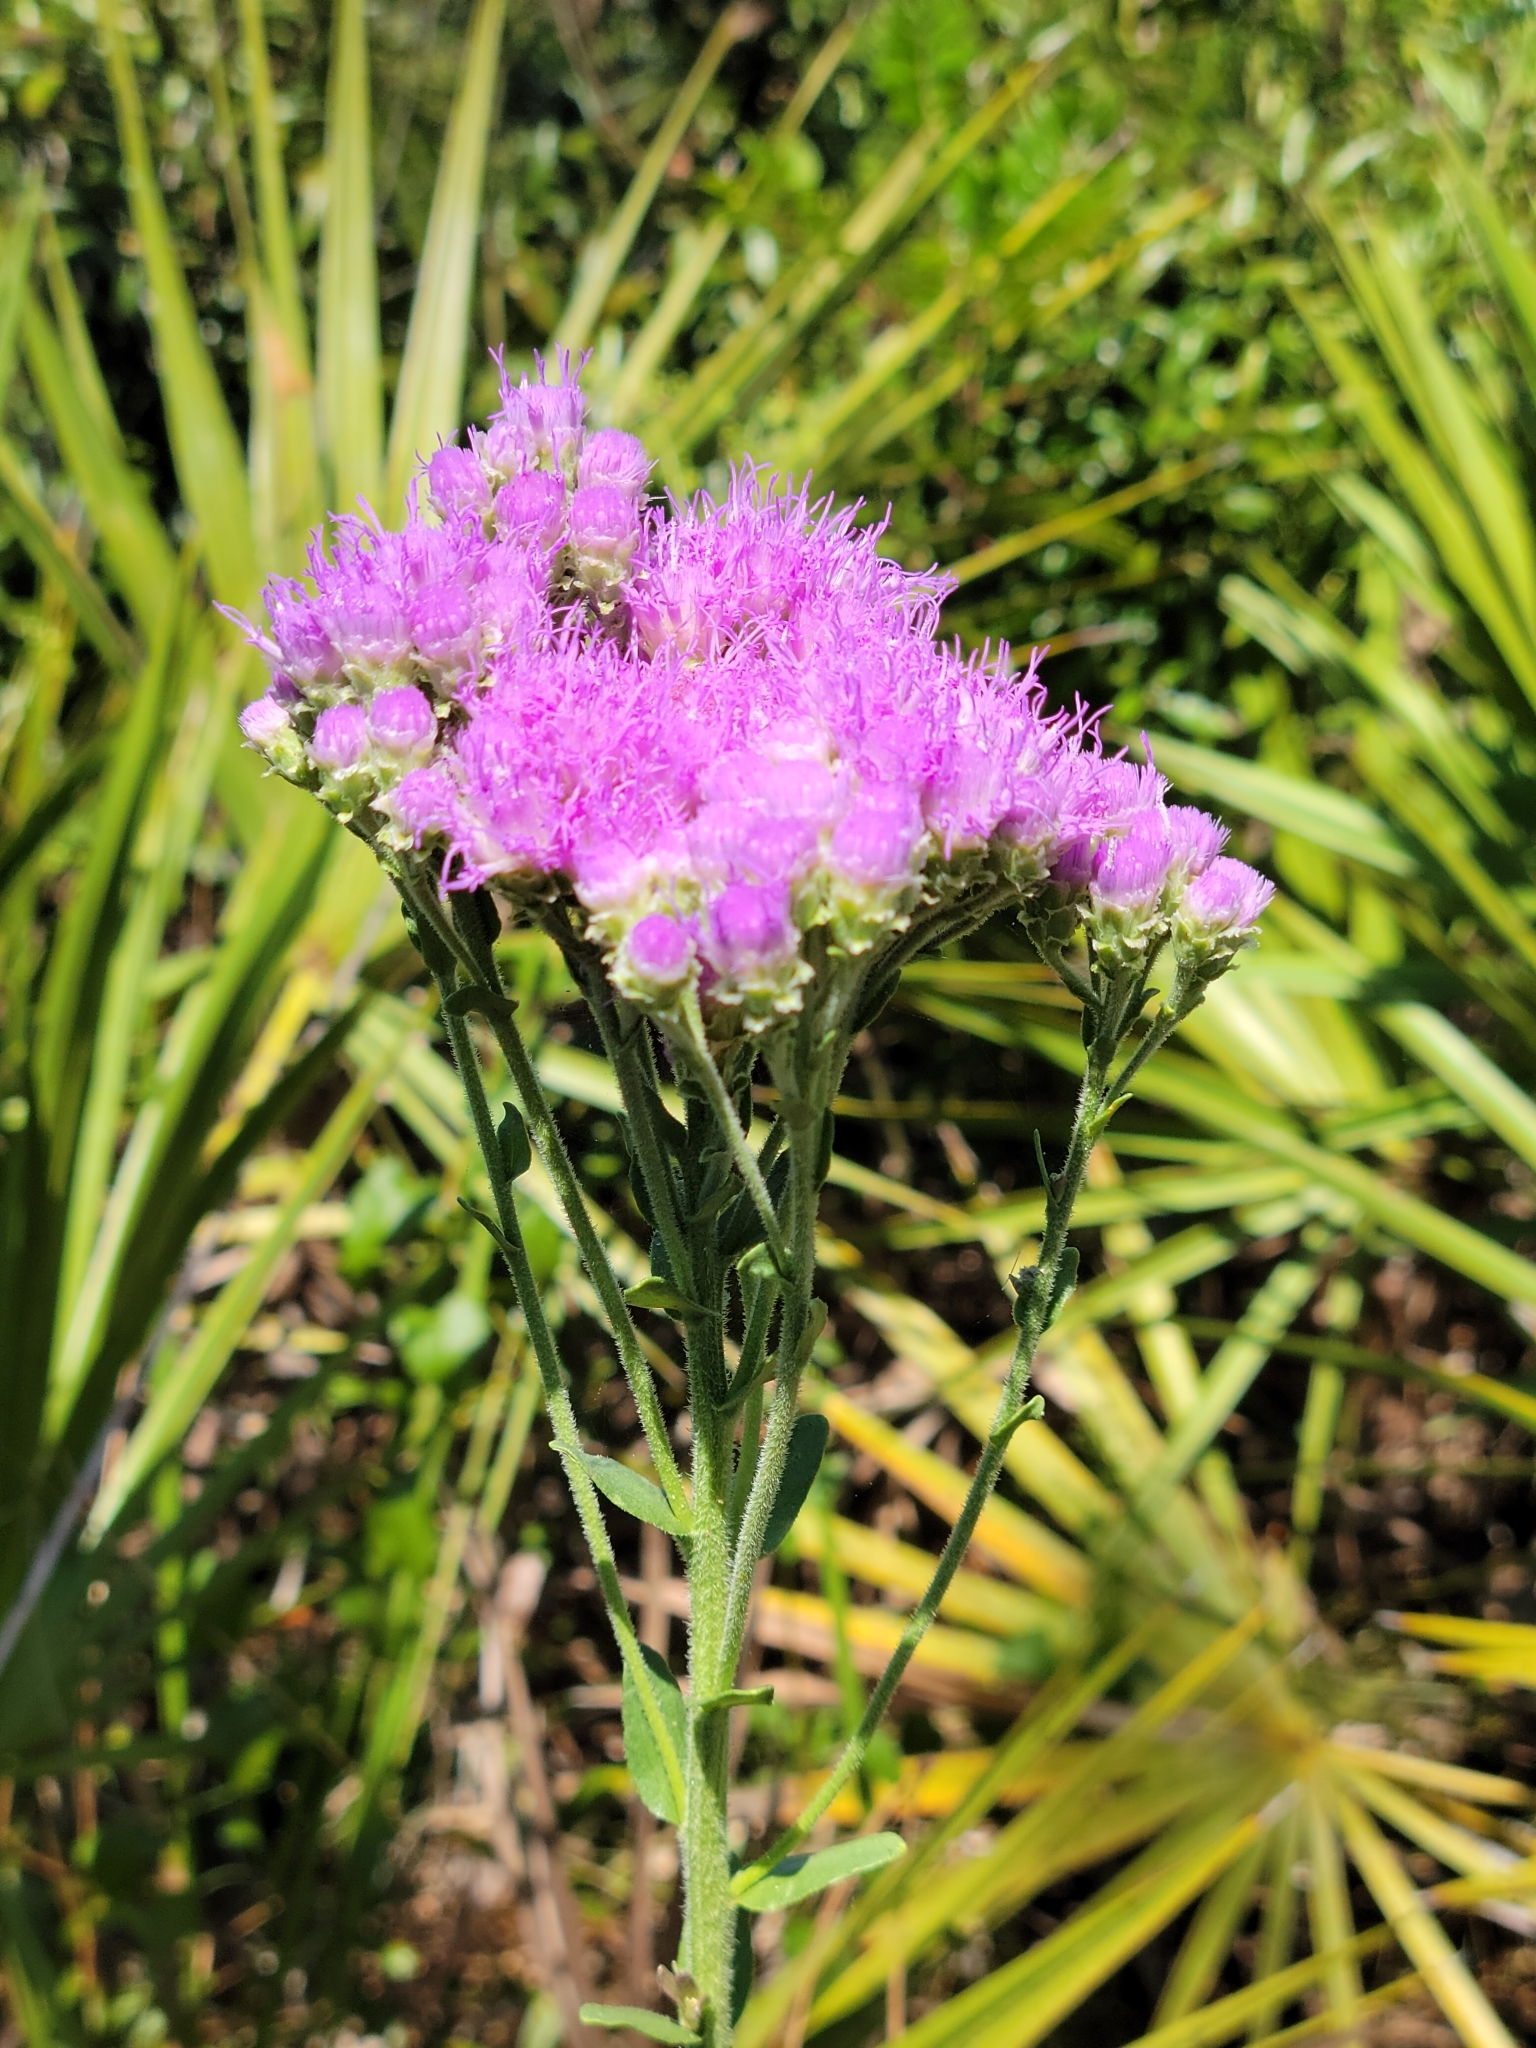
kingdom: Plantae
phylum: Tracheophyta
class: Magnoliopsida
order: Asterales
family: Asteraceae
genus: Carphephorus
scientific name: Carphephorus corymbosus
